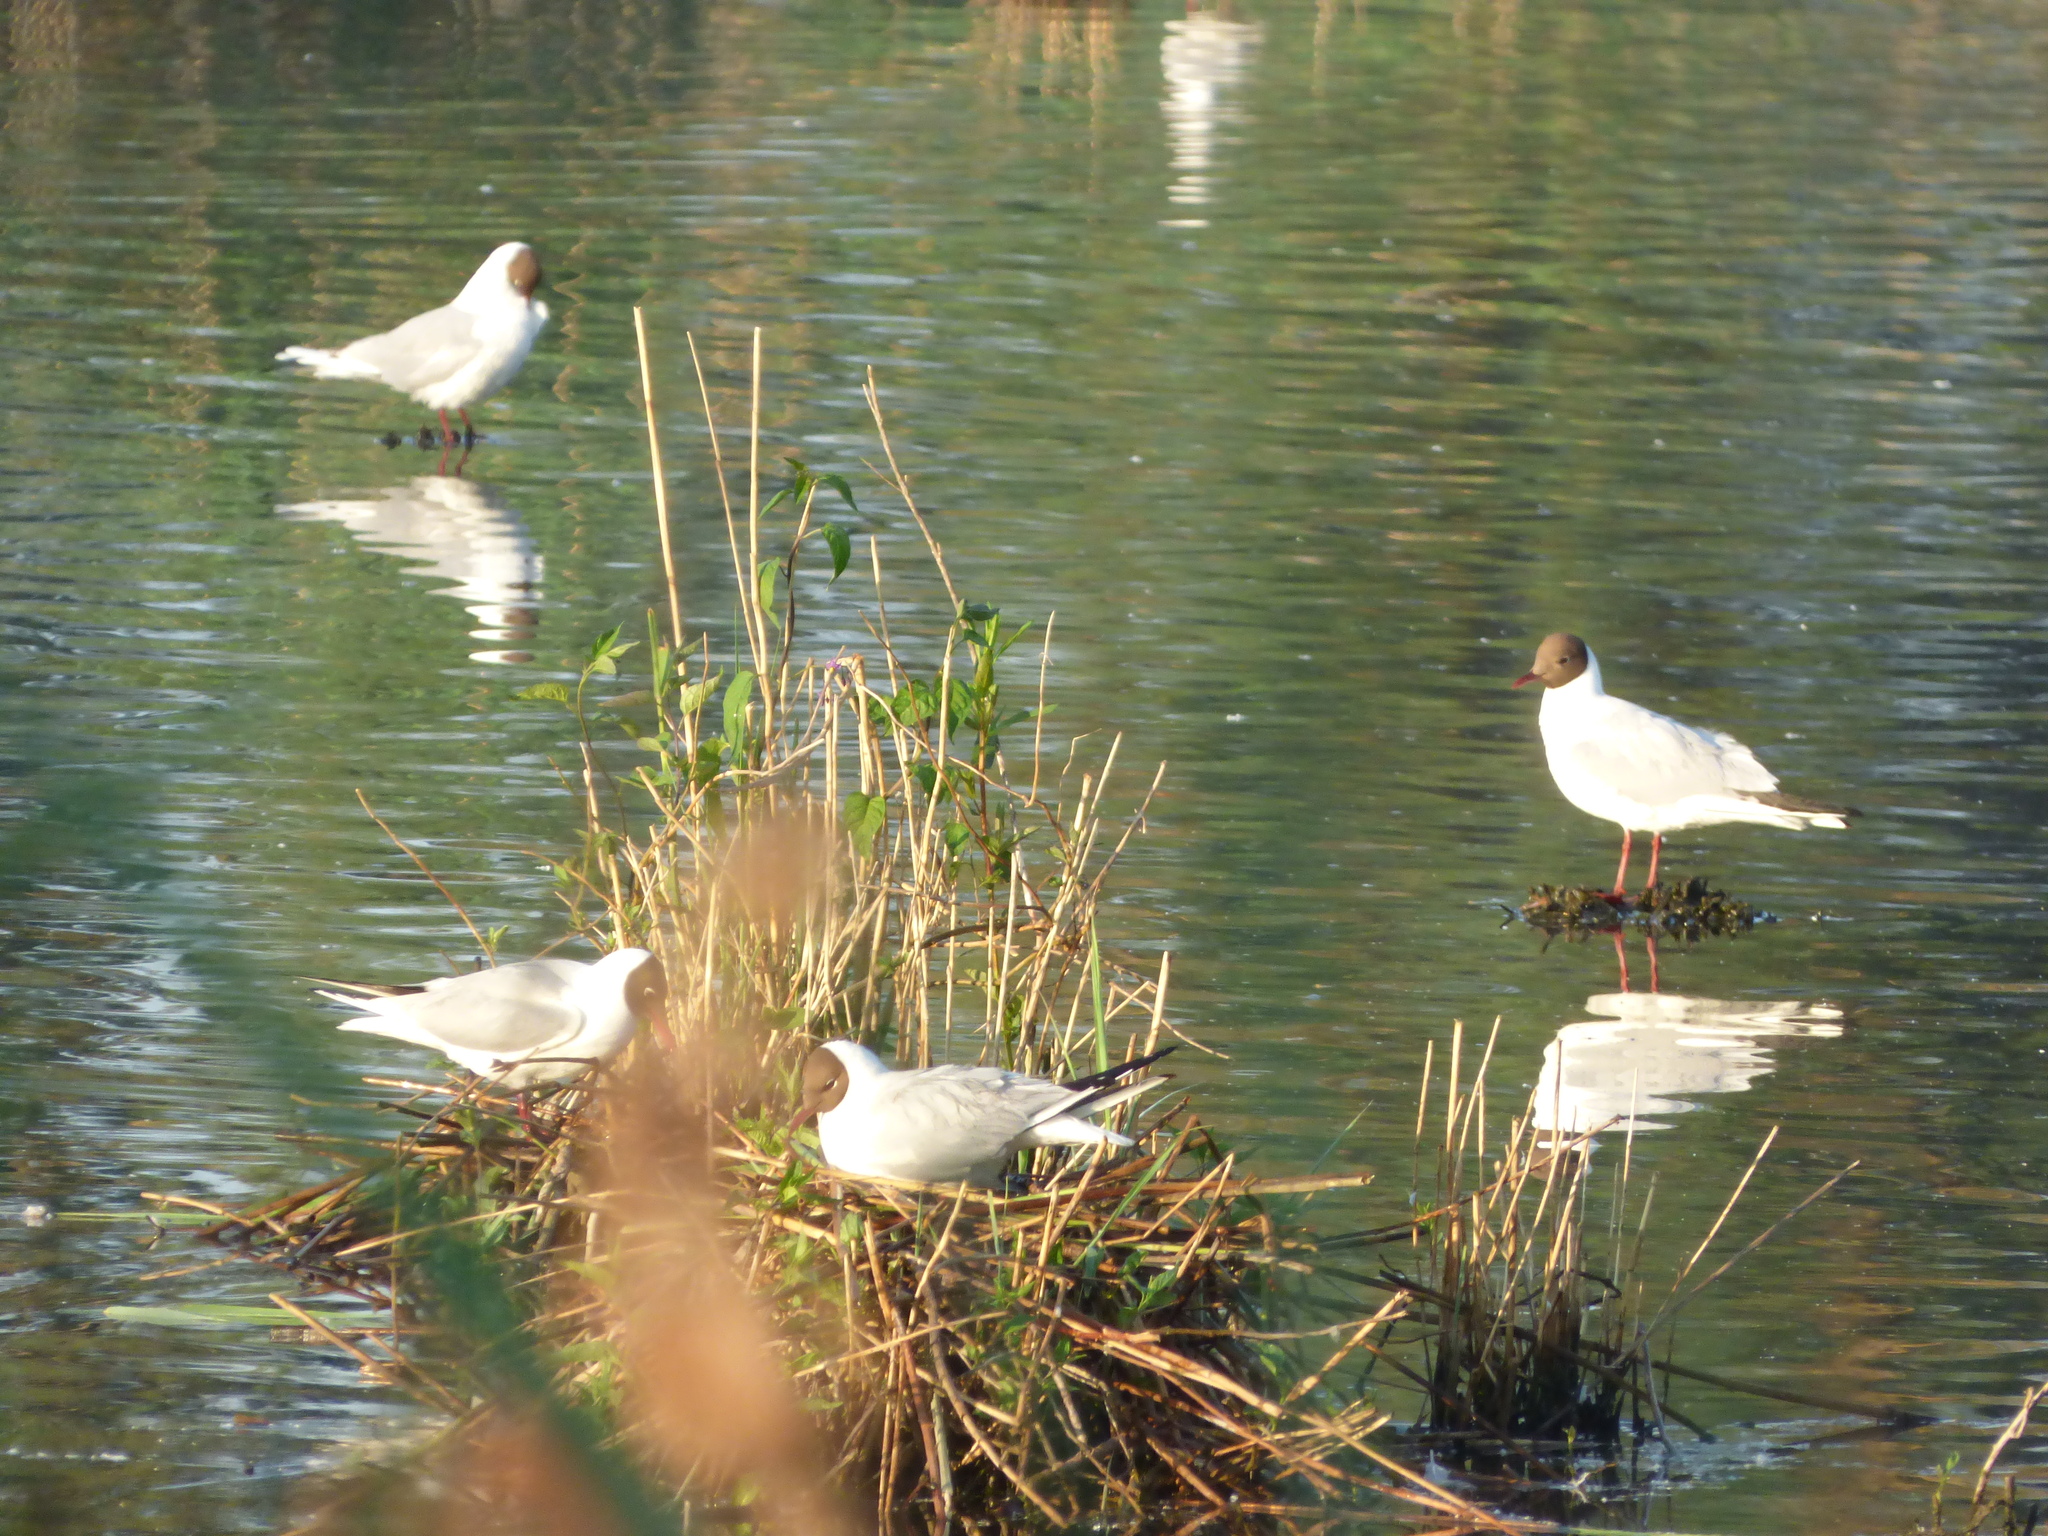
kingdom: Animalia
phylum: Chordata
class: Aves
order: Charadriiformes
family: Laridae
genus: Chroicocephalus
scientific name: Chroicocephalus ridibundus
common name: Black-headed gull
